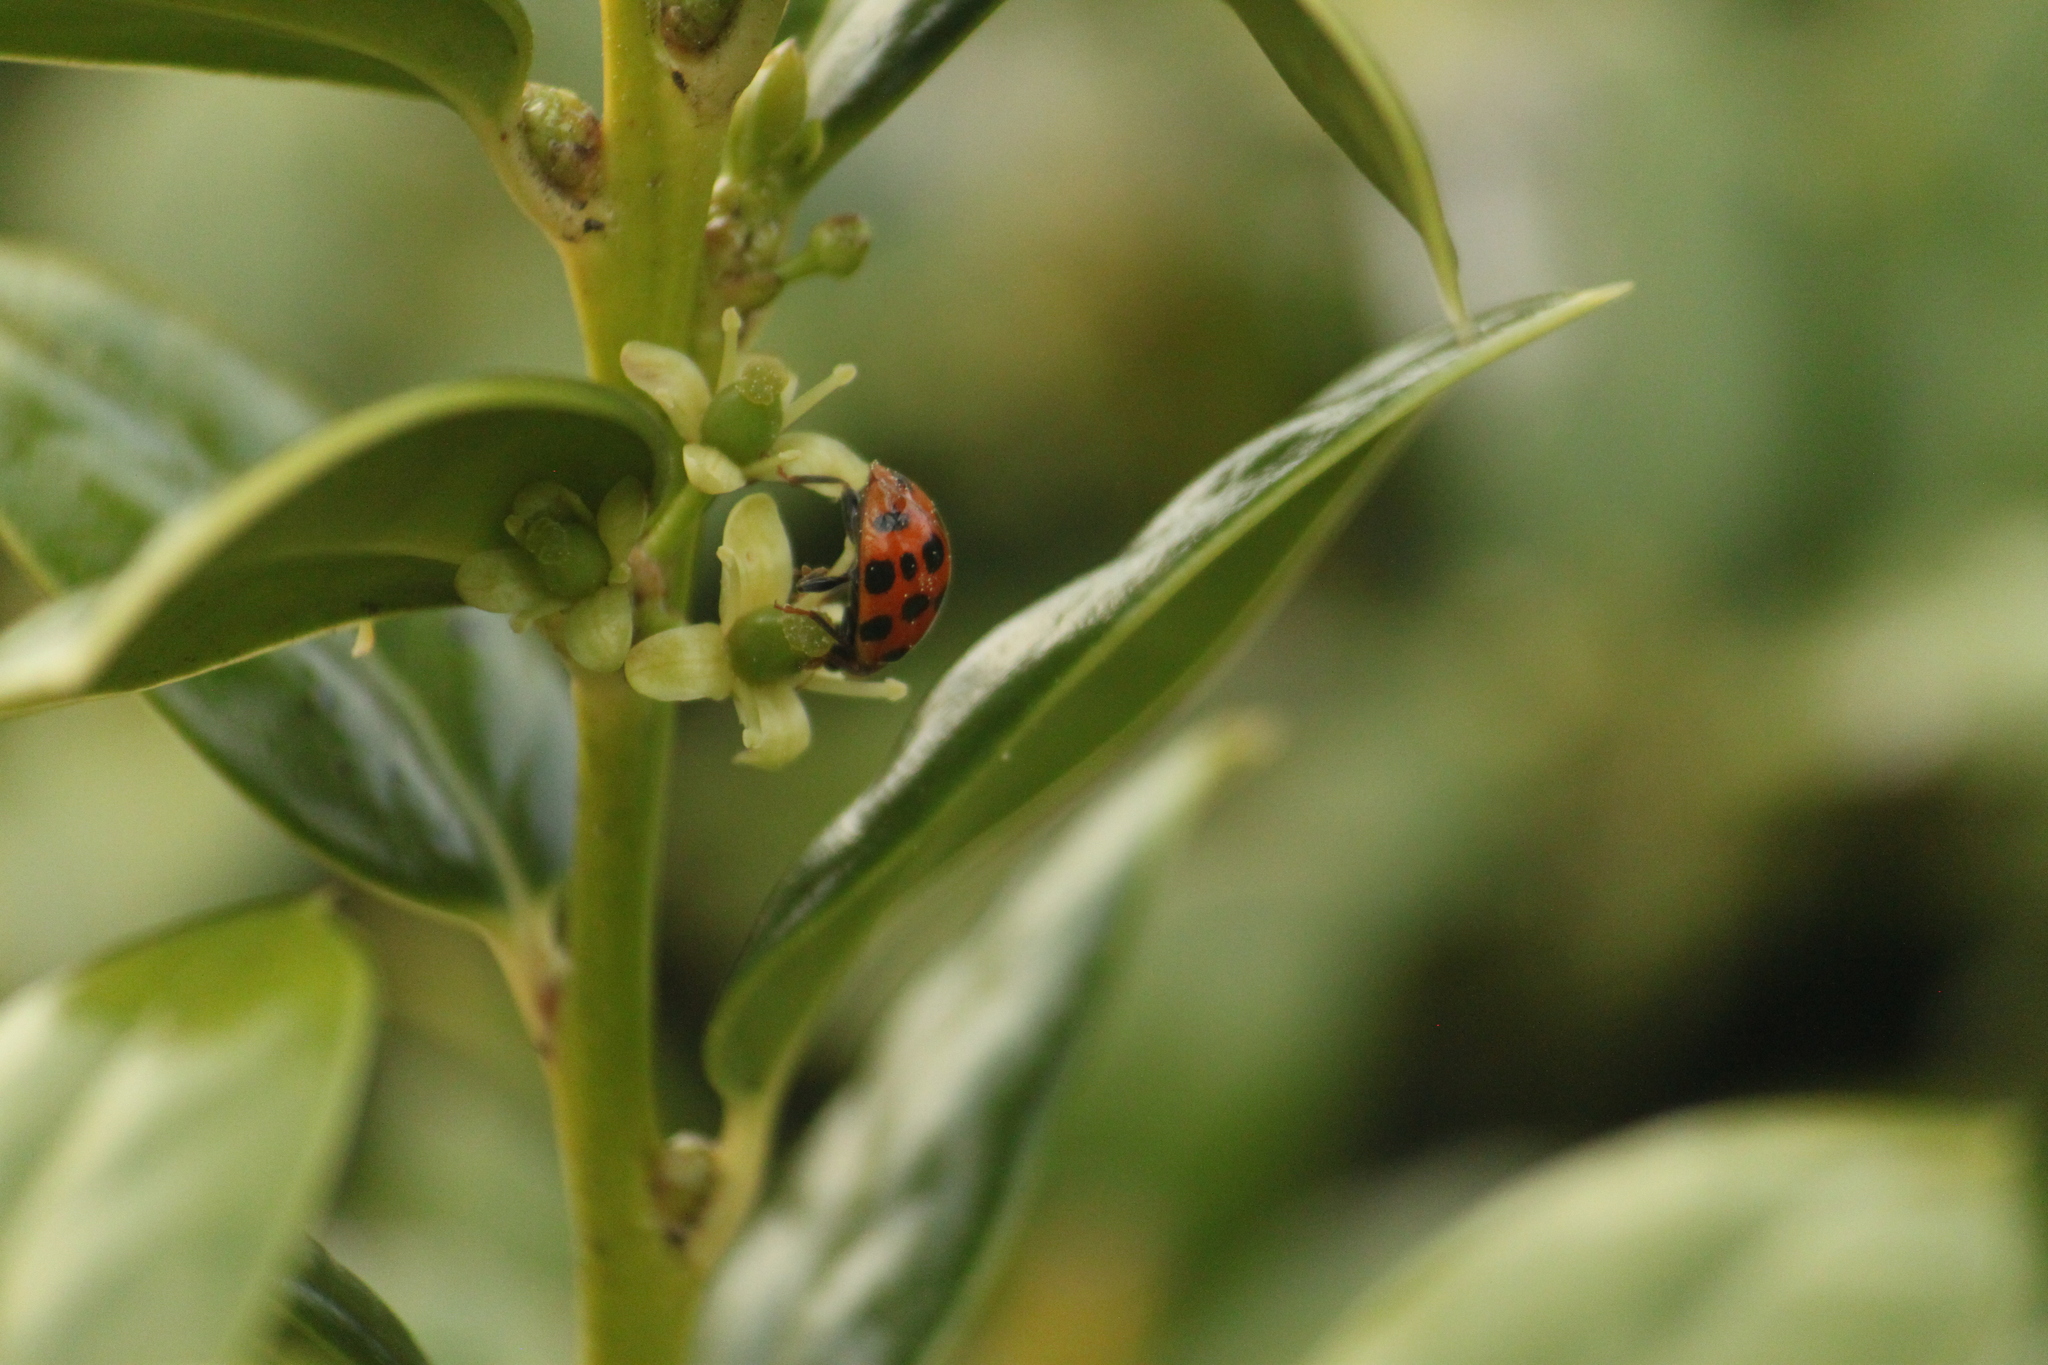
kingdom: Animalia
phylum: Arthropoda
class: Insecta
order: Coleoptera
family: Coccinellidae
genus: Harmonia
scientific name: Harmonia axyridis
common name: Harlequin ladybird
